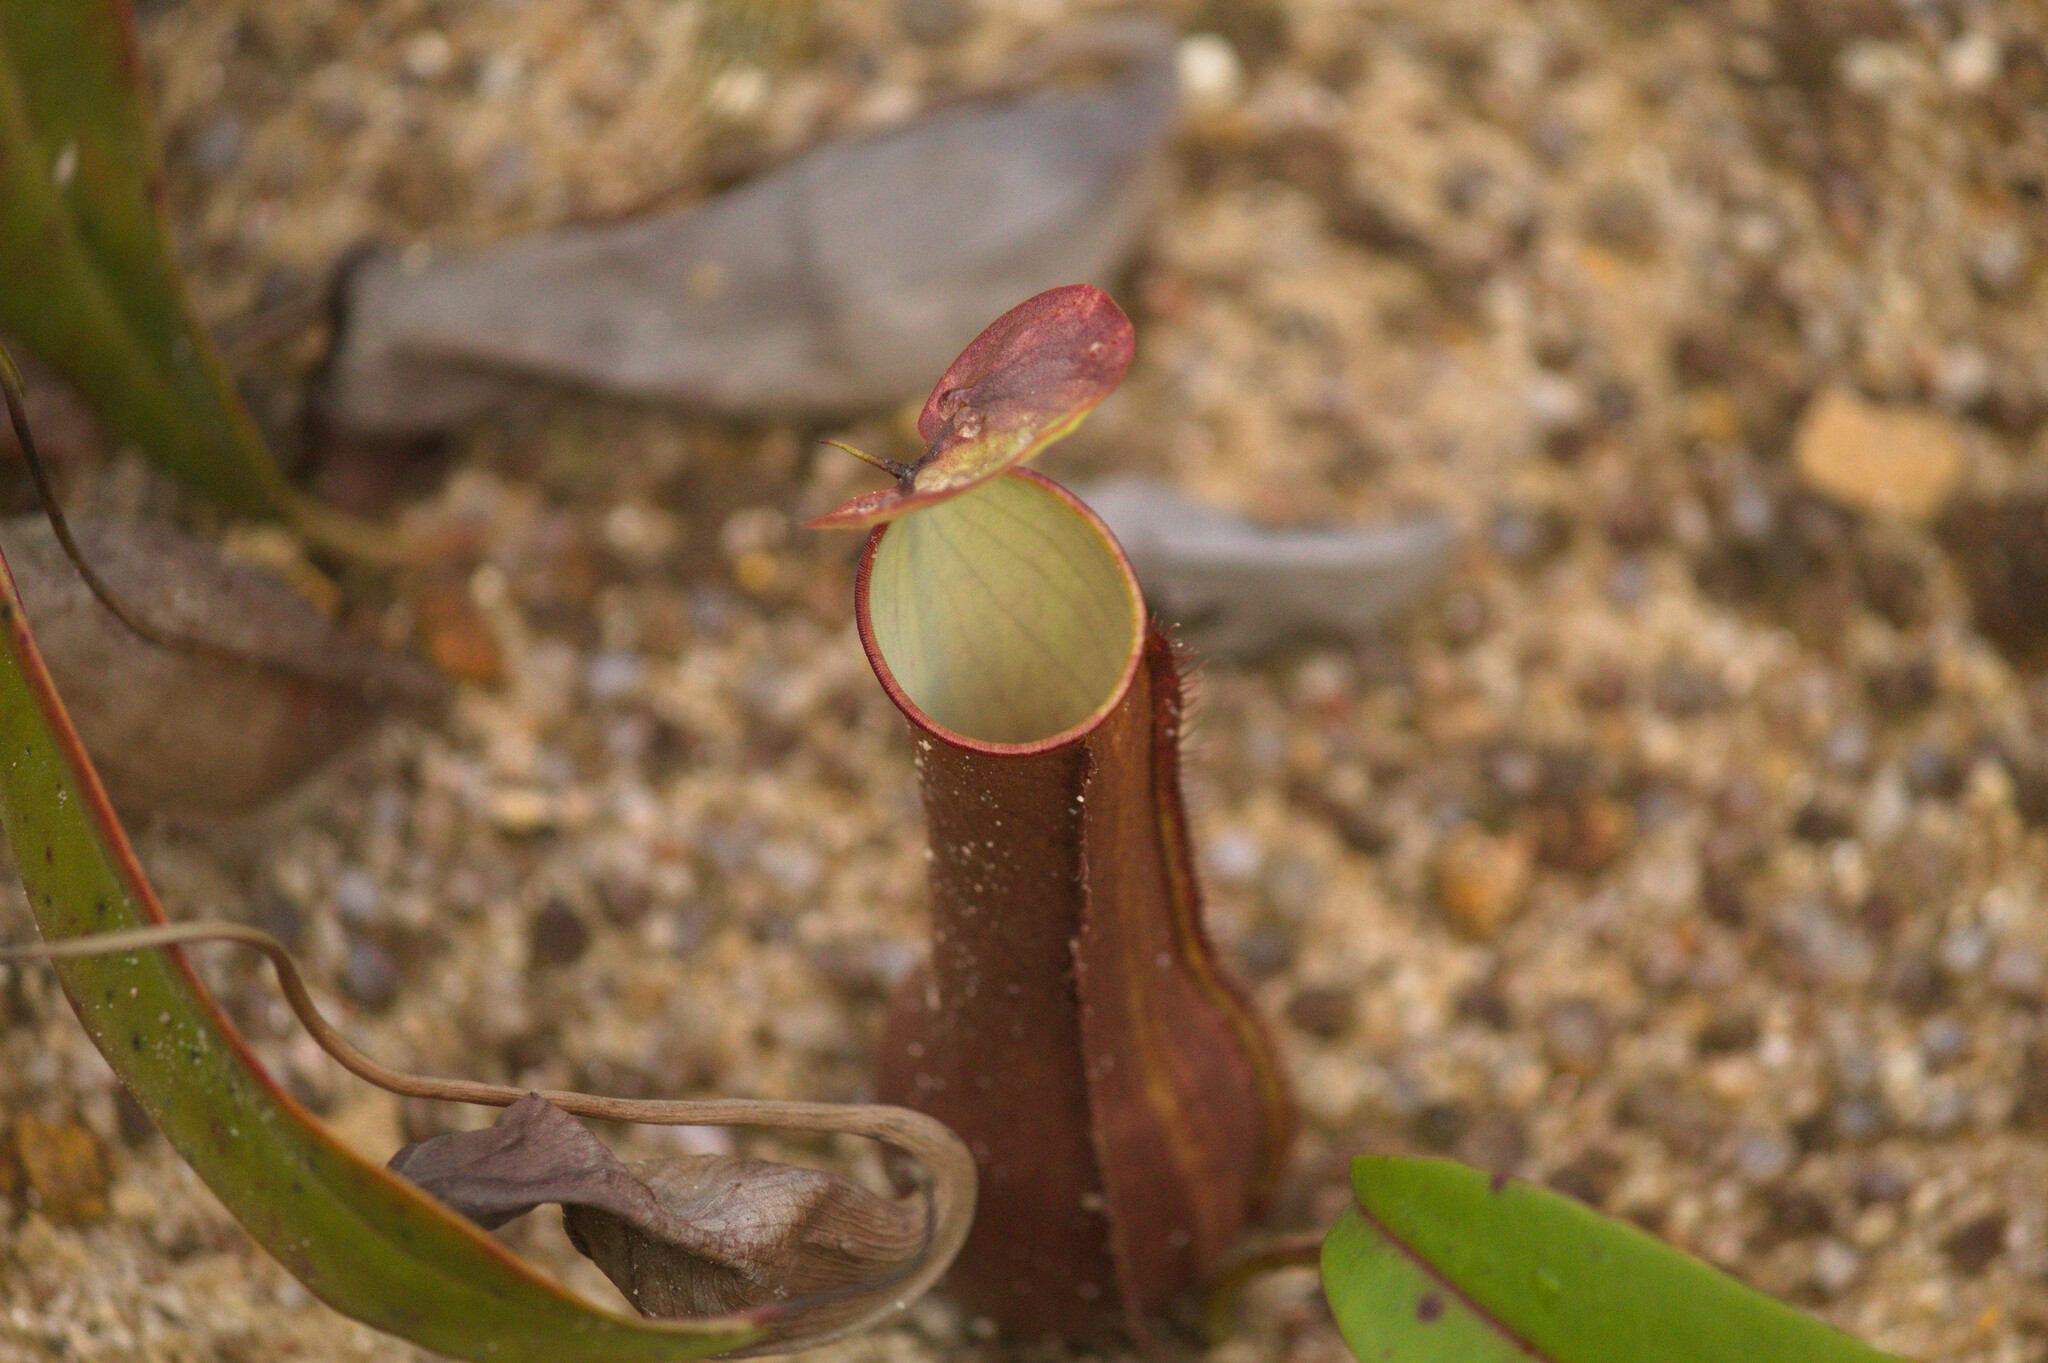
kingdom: Plantae
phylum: Tracheophyta
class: Magnoliopsida
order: Caryophyllales
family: Nepenthaceae
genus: Nepenthes
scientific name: Nepenthes gracilis
